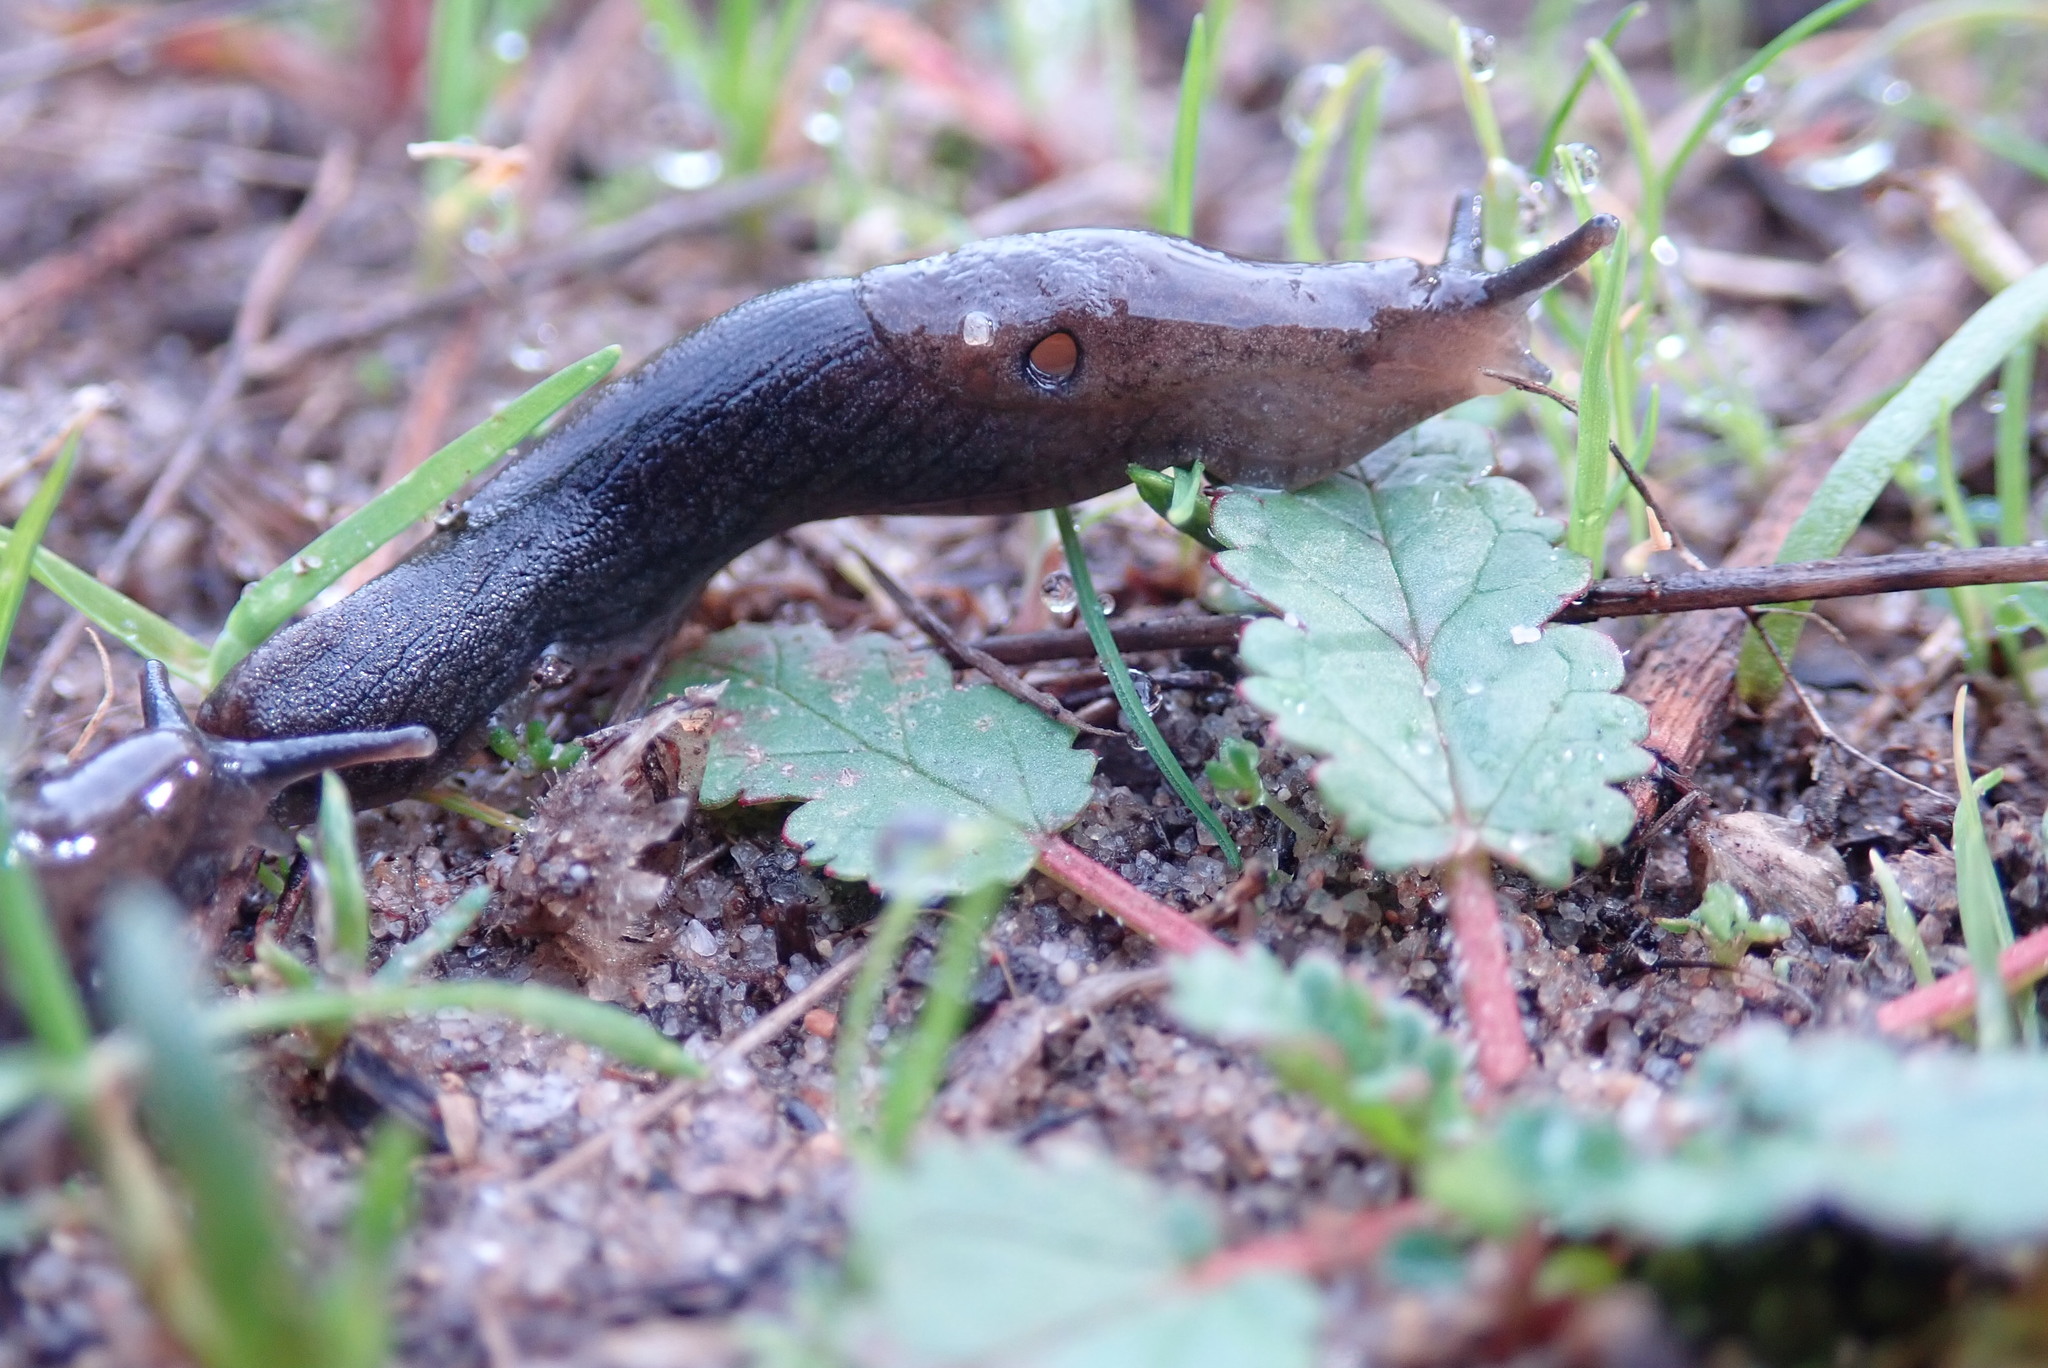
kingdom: Animalia
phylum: Mollusca
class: Gastropoda
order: Stylommatophora
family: Ariolimacidae
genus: Hesperarion
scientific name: Hesperarion niger
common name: Black western slug
